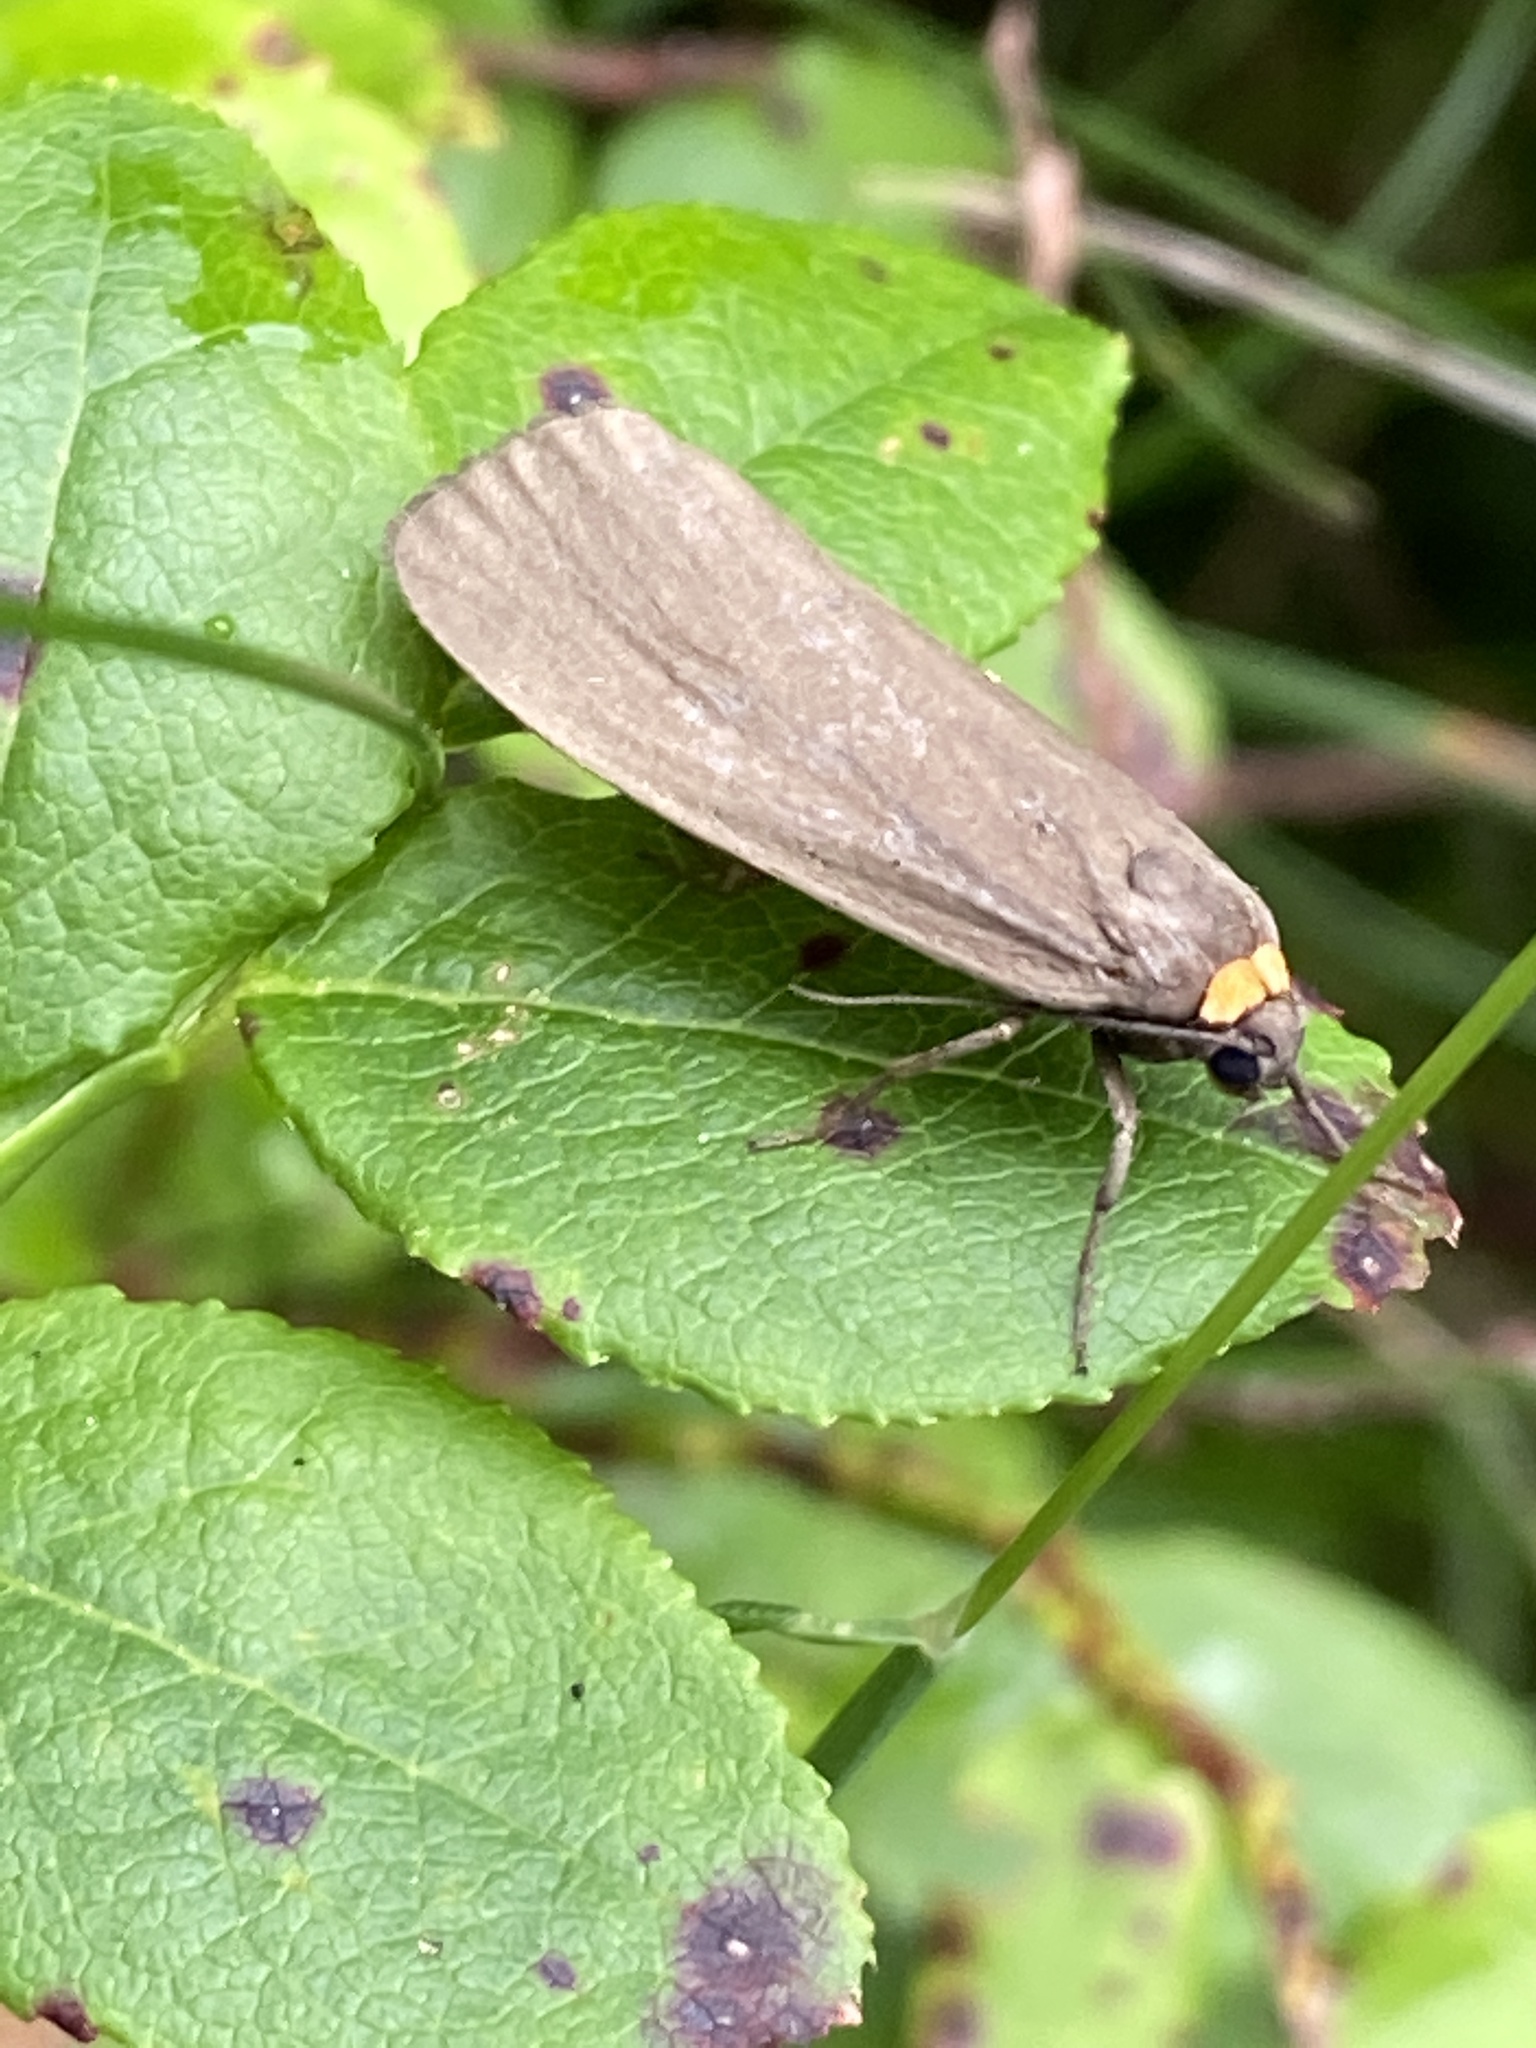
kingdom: Animalia
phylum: Arthropoda
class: Insecta
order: Lepidoptera
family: Erebidae
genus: Atolmis
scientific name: Atolmis rubricollis
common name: Red-necked footman
